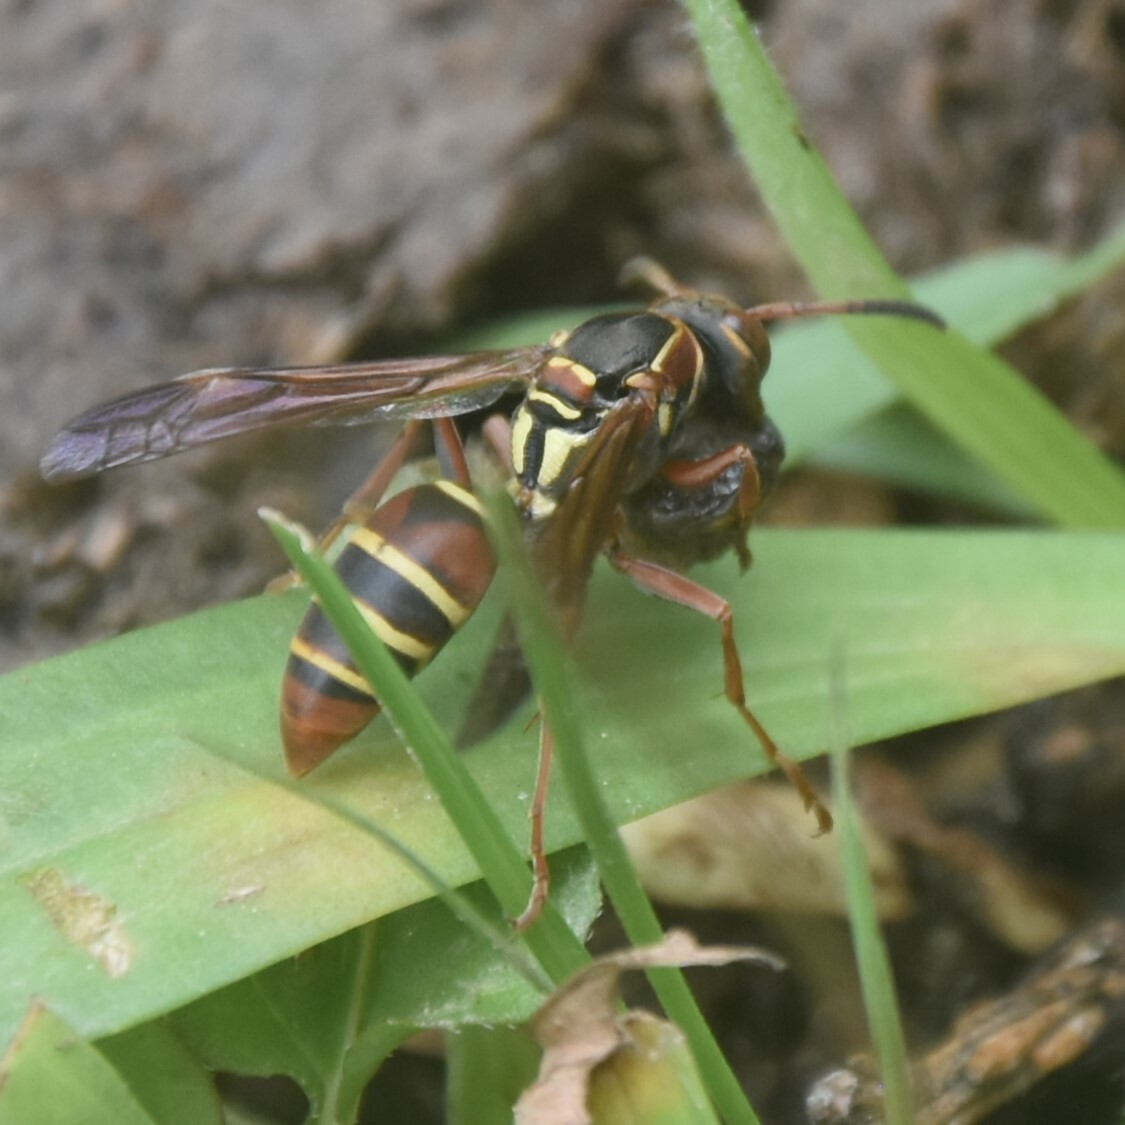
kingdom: Animalia
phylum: Arthropoda
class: Insecta
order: Hymenoptera
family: Eumenidae
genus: Knemodynerus
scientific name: Knemodynerus multimaculatus
